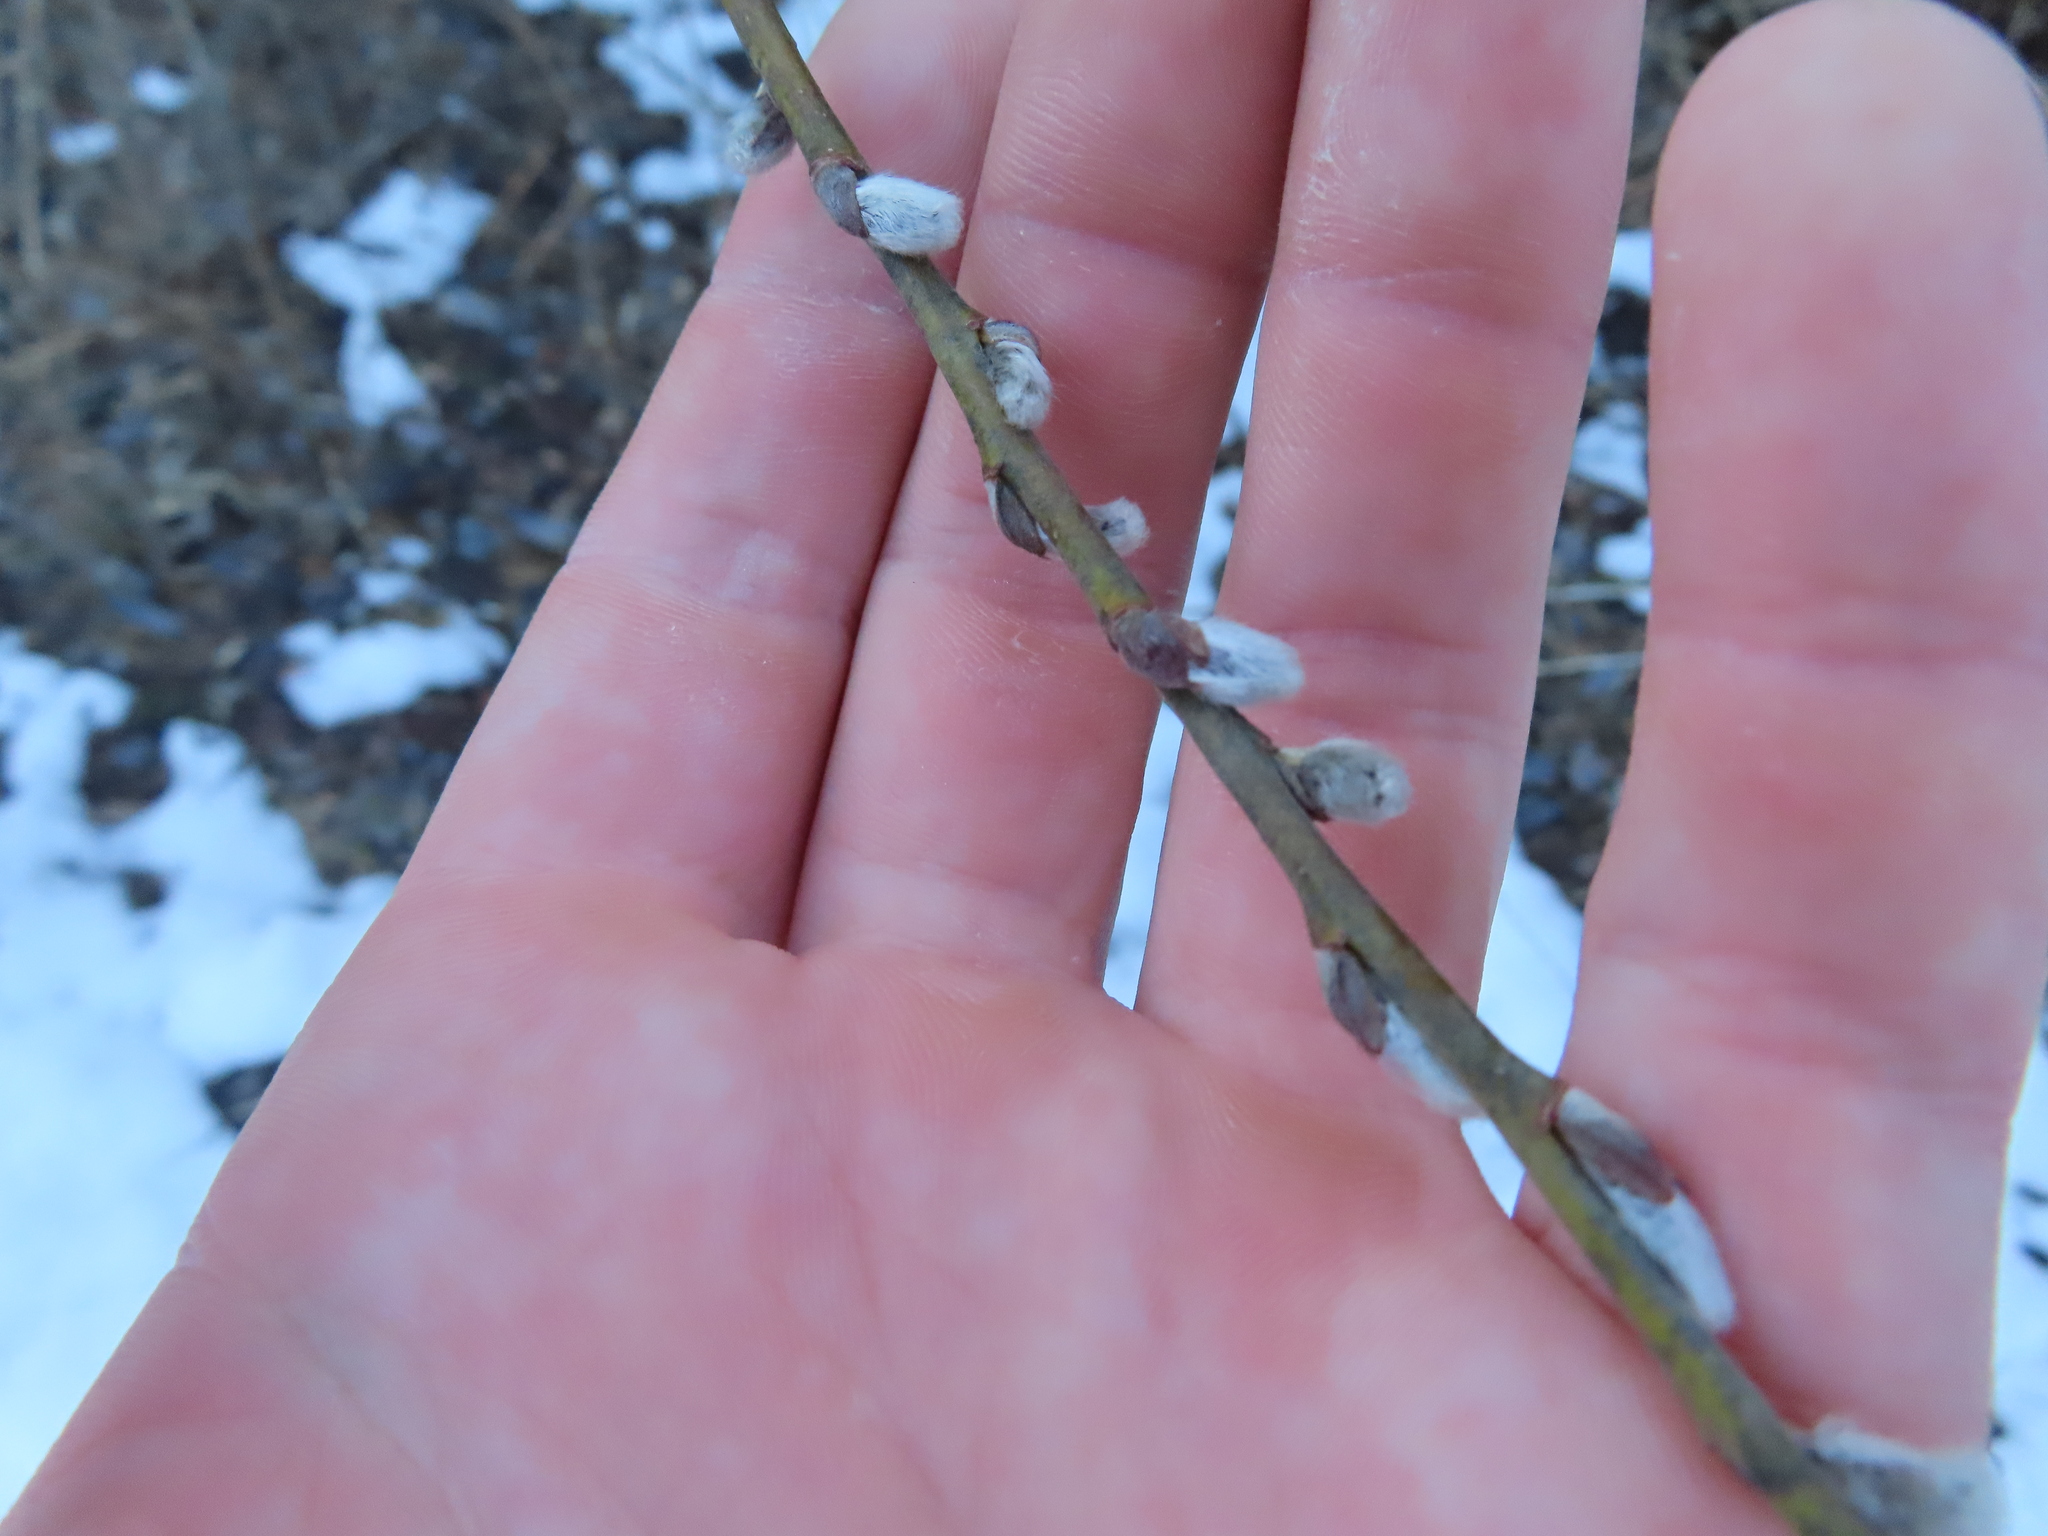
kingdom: Plantae
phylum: Tracheophyta
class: Magnoliopsida
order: Malpighiales
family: Salicaceae
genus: Salix
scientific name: Salix discolor
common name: Glaucous willow
